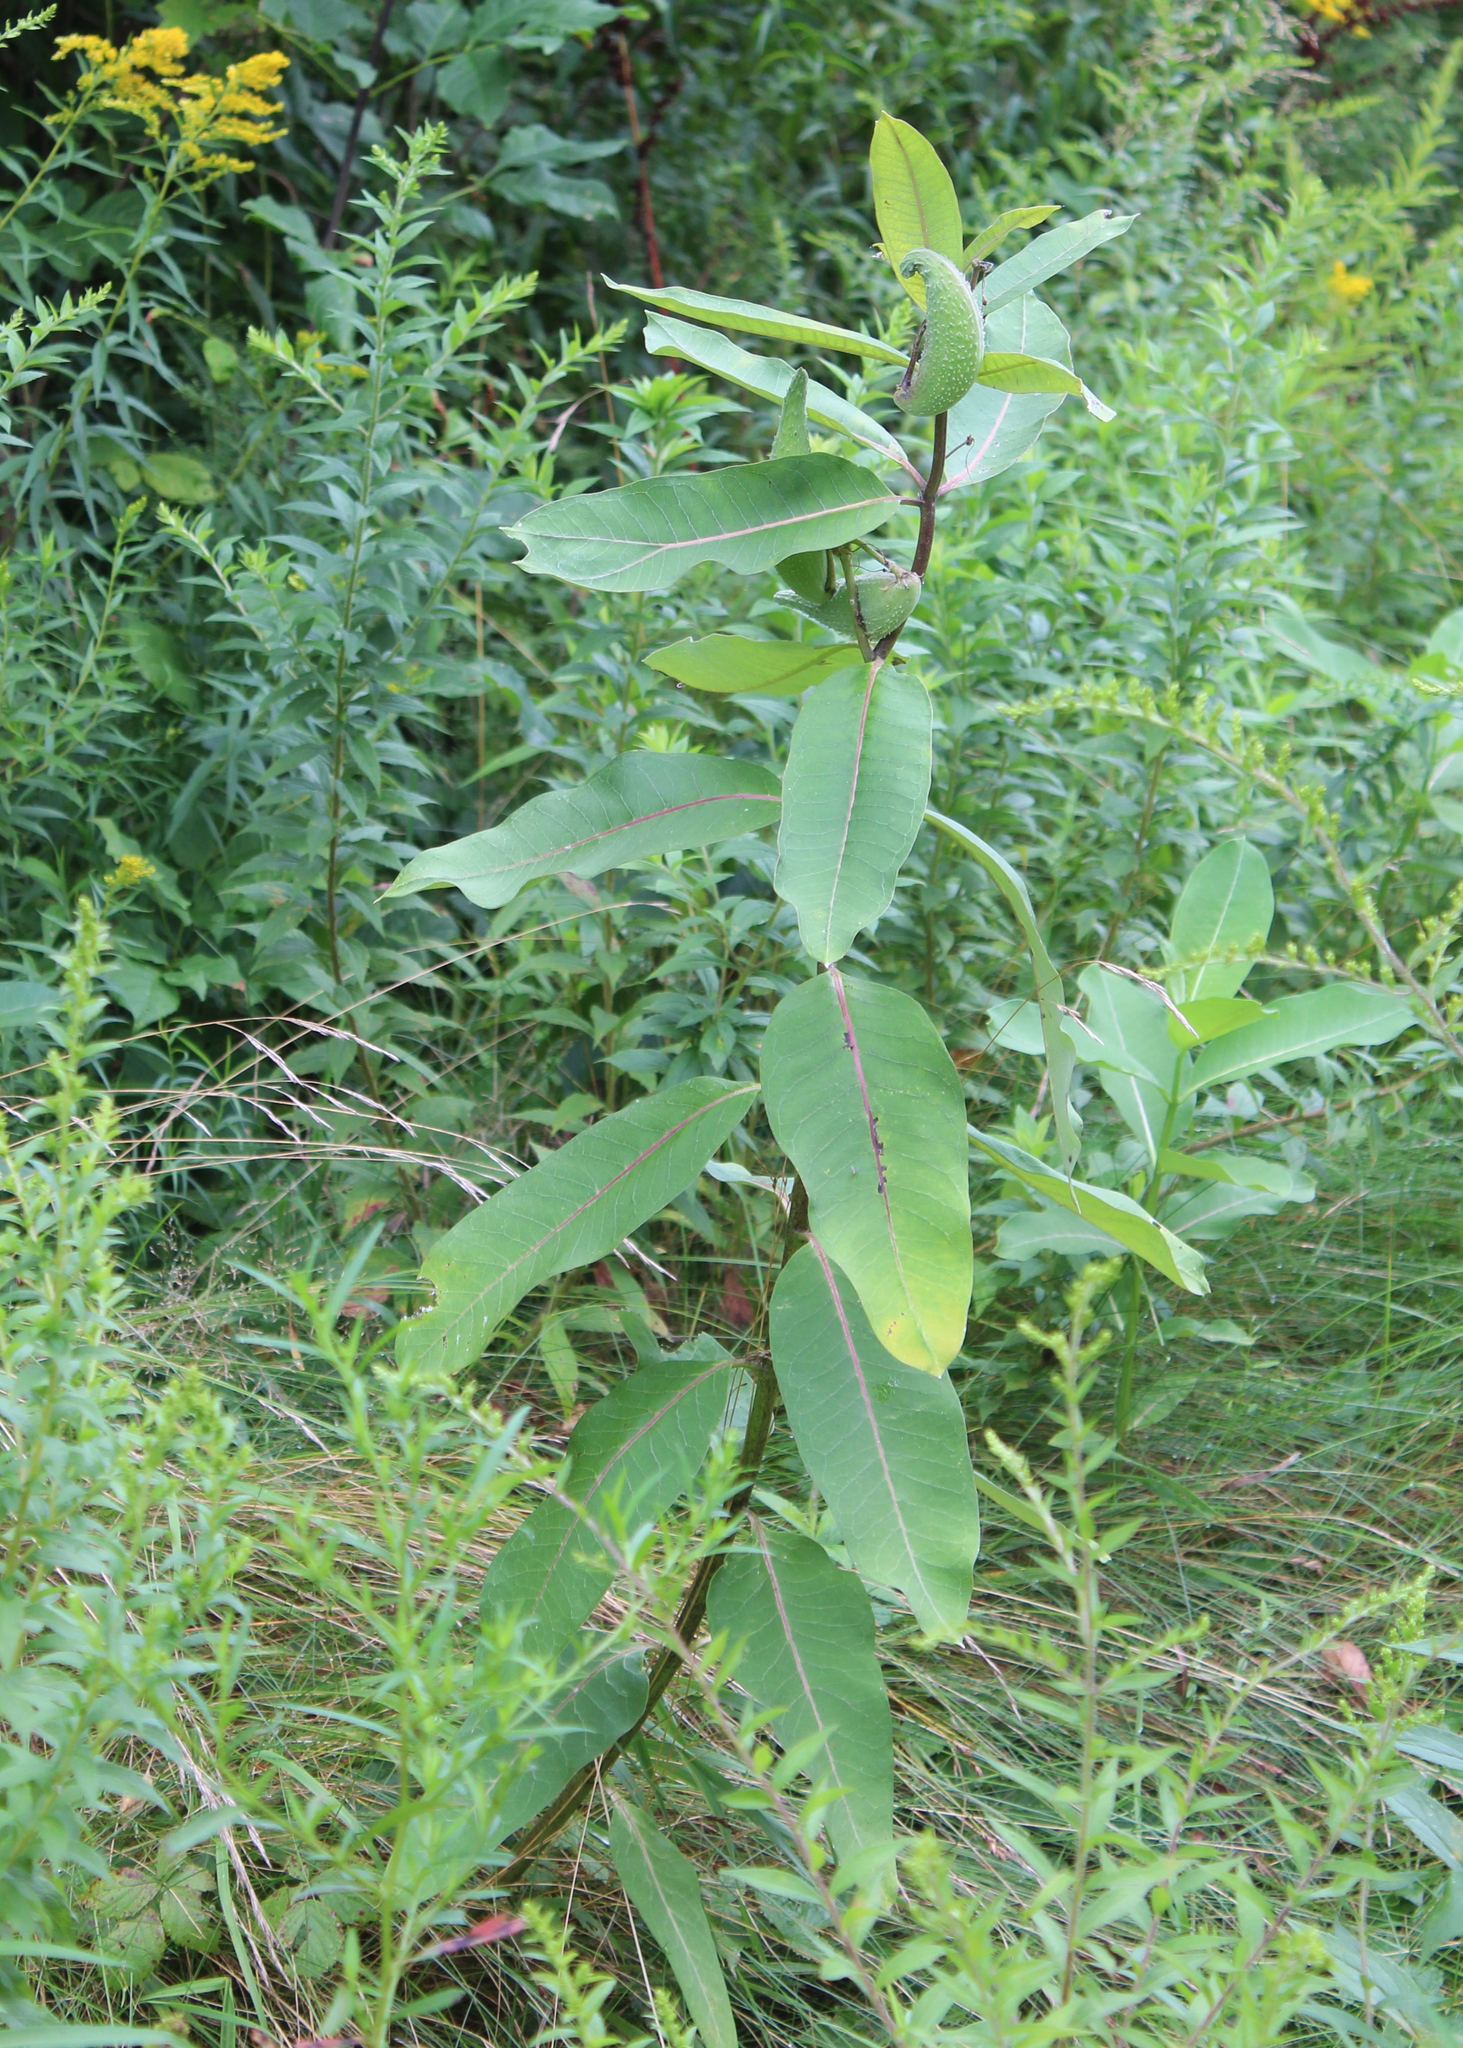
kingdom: Plantae
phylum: Tracheophyta
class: Magnoliopsida
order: Gentianales
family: Apocynaceae
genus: Asclepias
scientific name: Asclepias syriaca
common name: Common milkweed
